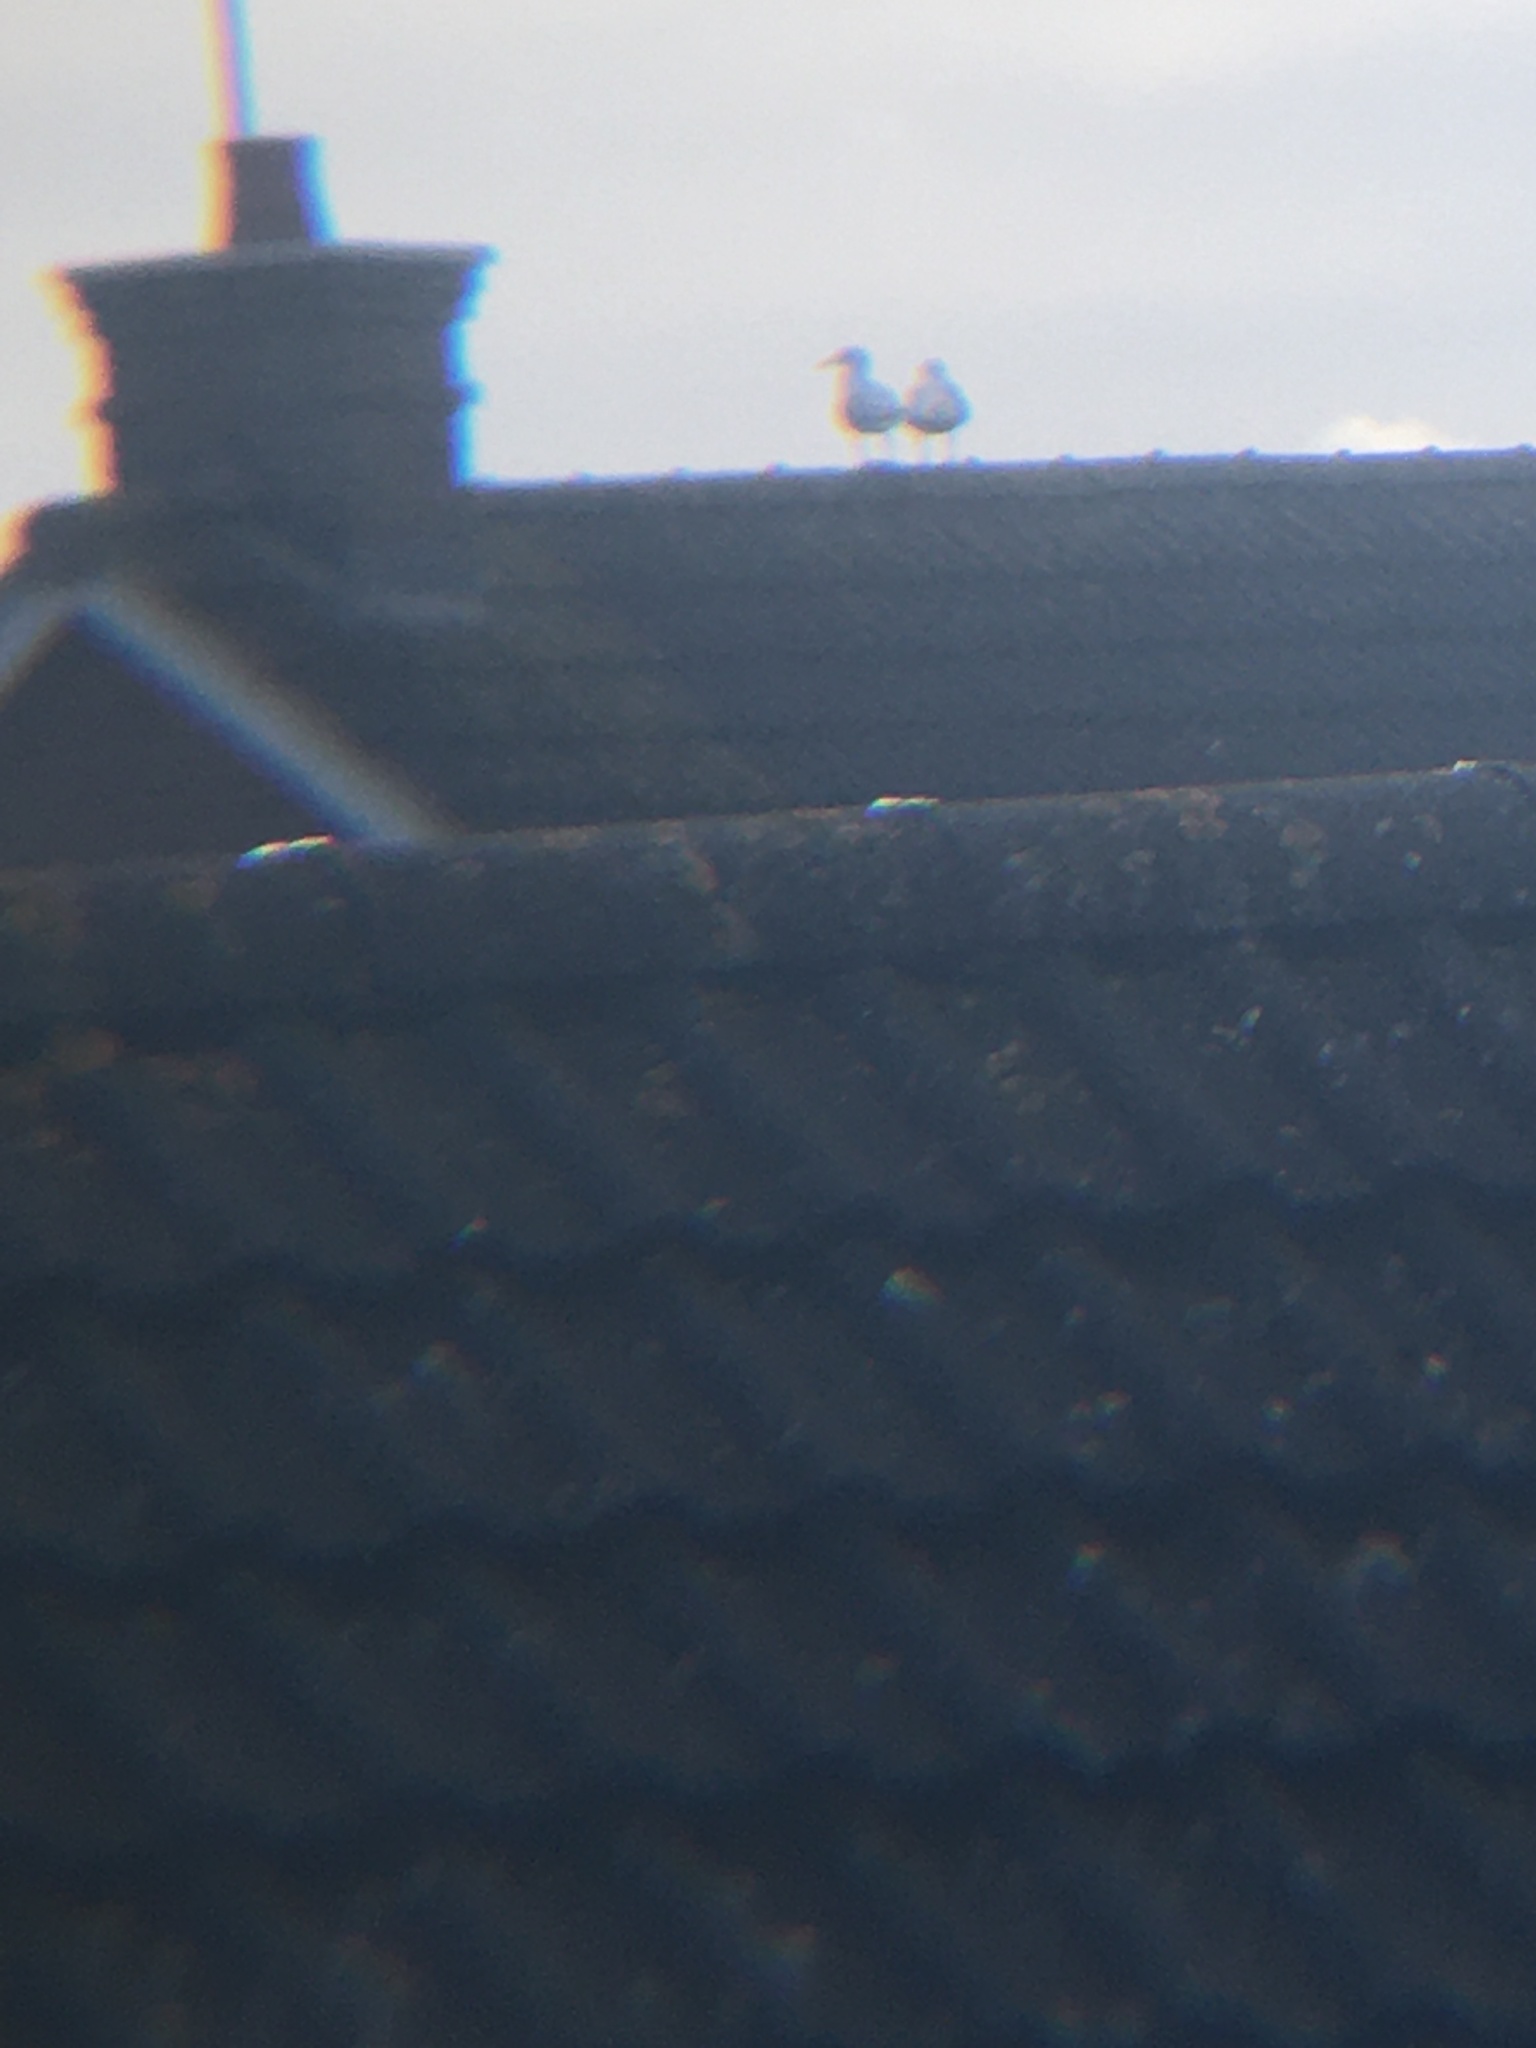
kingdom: Animalia
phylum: Chordata
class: Aves
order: Charadriiformes
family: Laridae
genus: Larus
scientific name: Larus argentatus
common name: Herring gull
